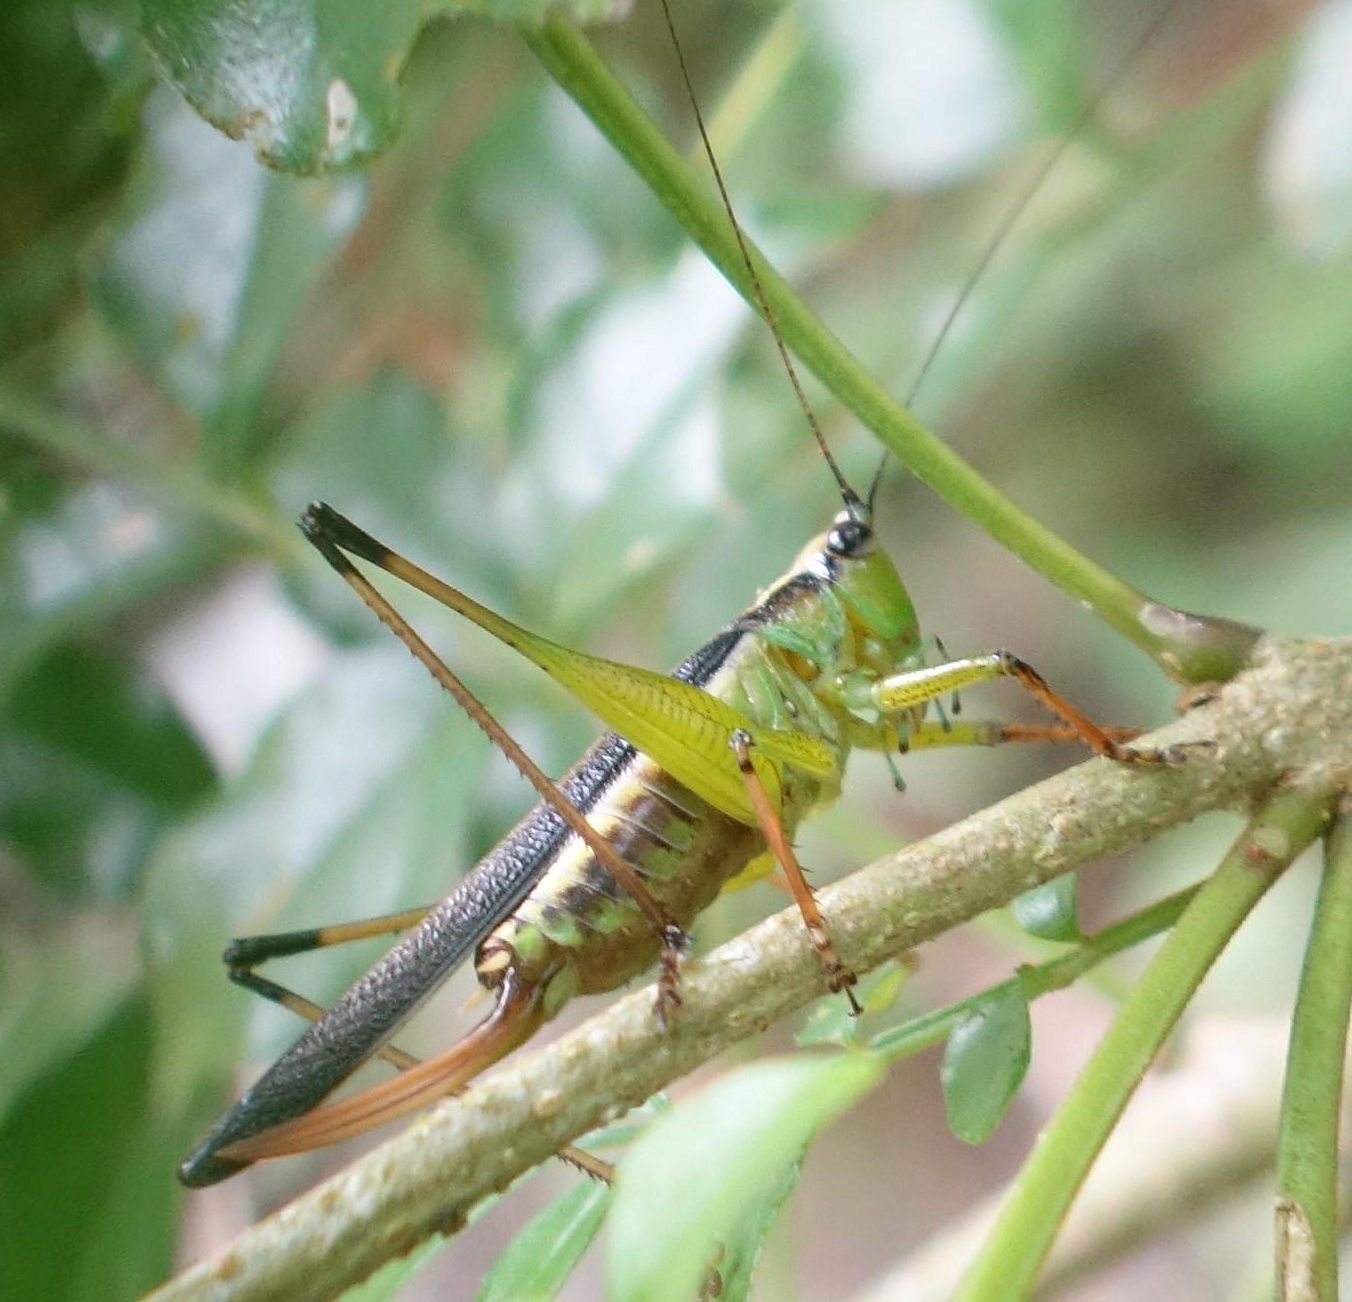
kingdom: Animalia
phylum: Arthropoda
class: Insecta
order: Orthoptera
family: Tettigoniidae
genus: Conocephalus
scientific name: Conocephalus melaenus
